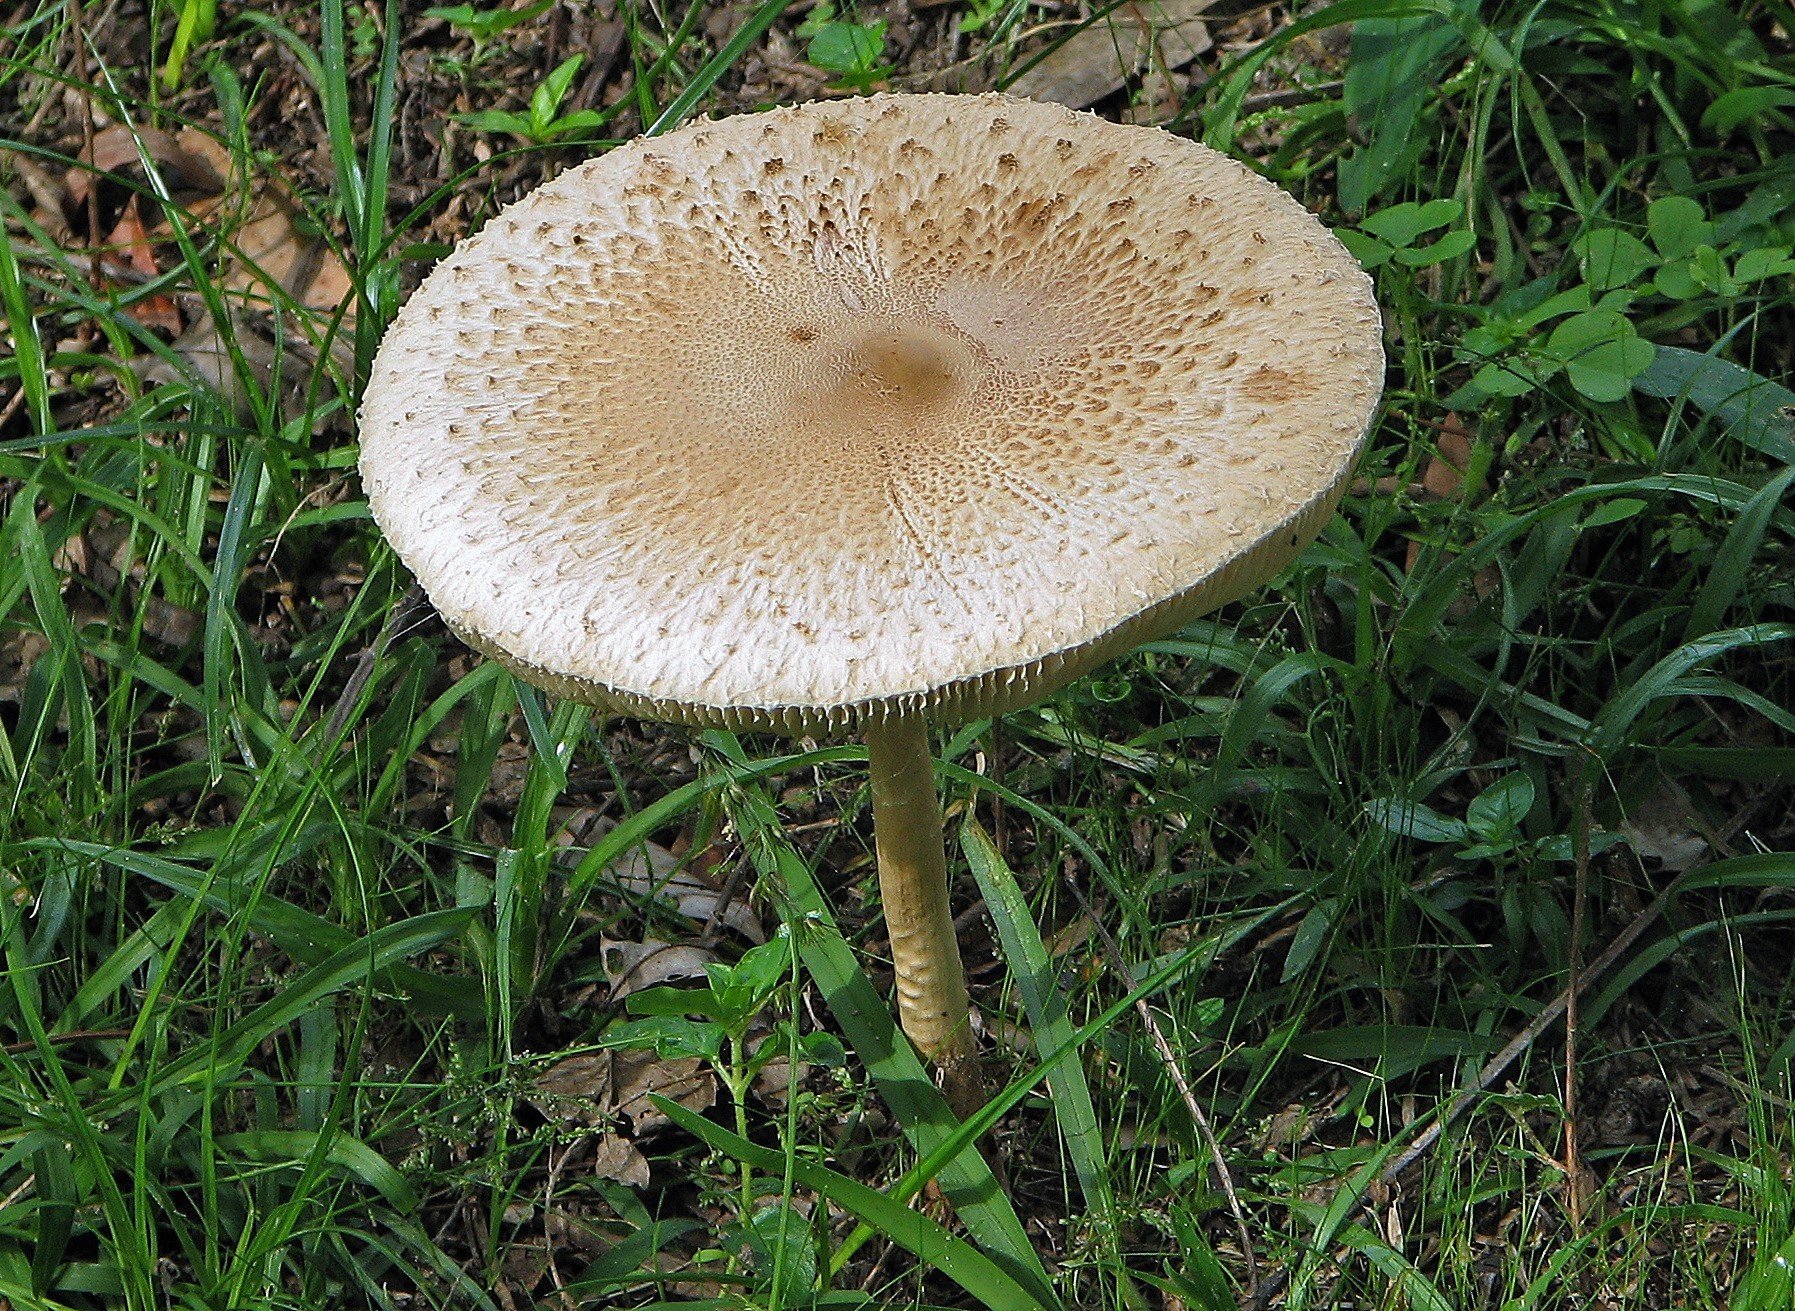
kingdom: Fungi
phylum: Basidiomycota
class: Agaricomycetes
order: Agaricales
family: Agaricaceae
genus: Chlorophyllum
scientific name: Chlorophyllum molybdites
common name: False parasol
